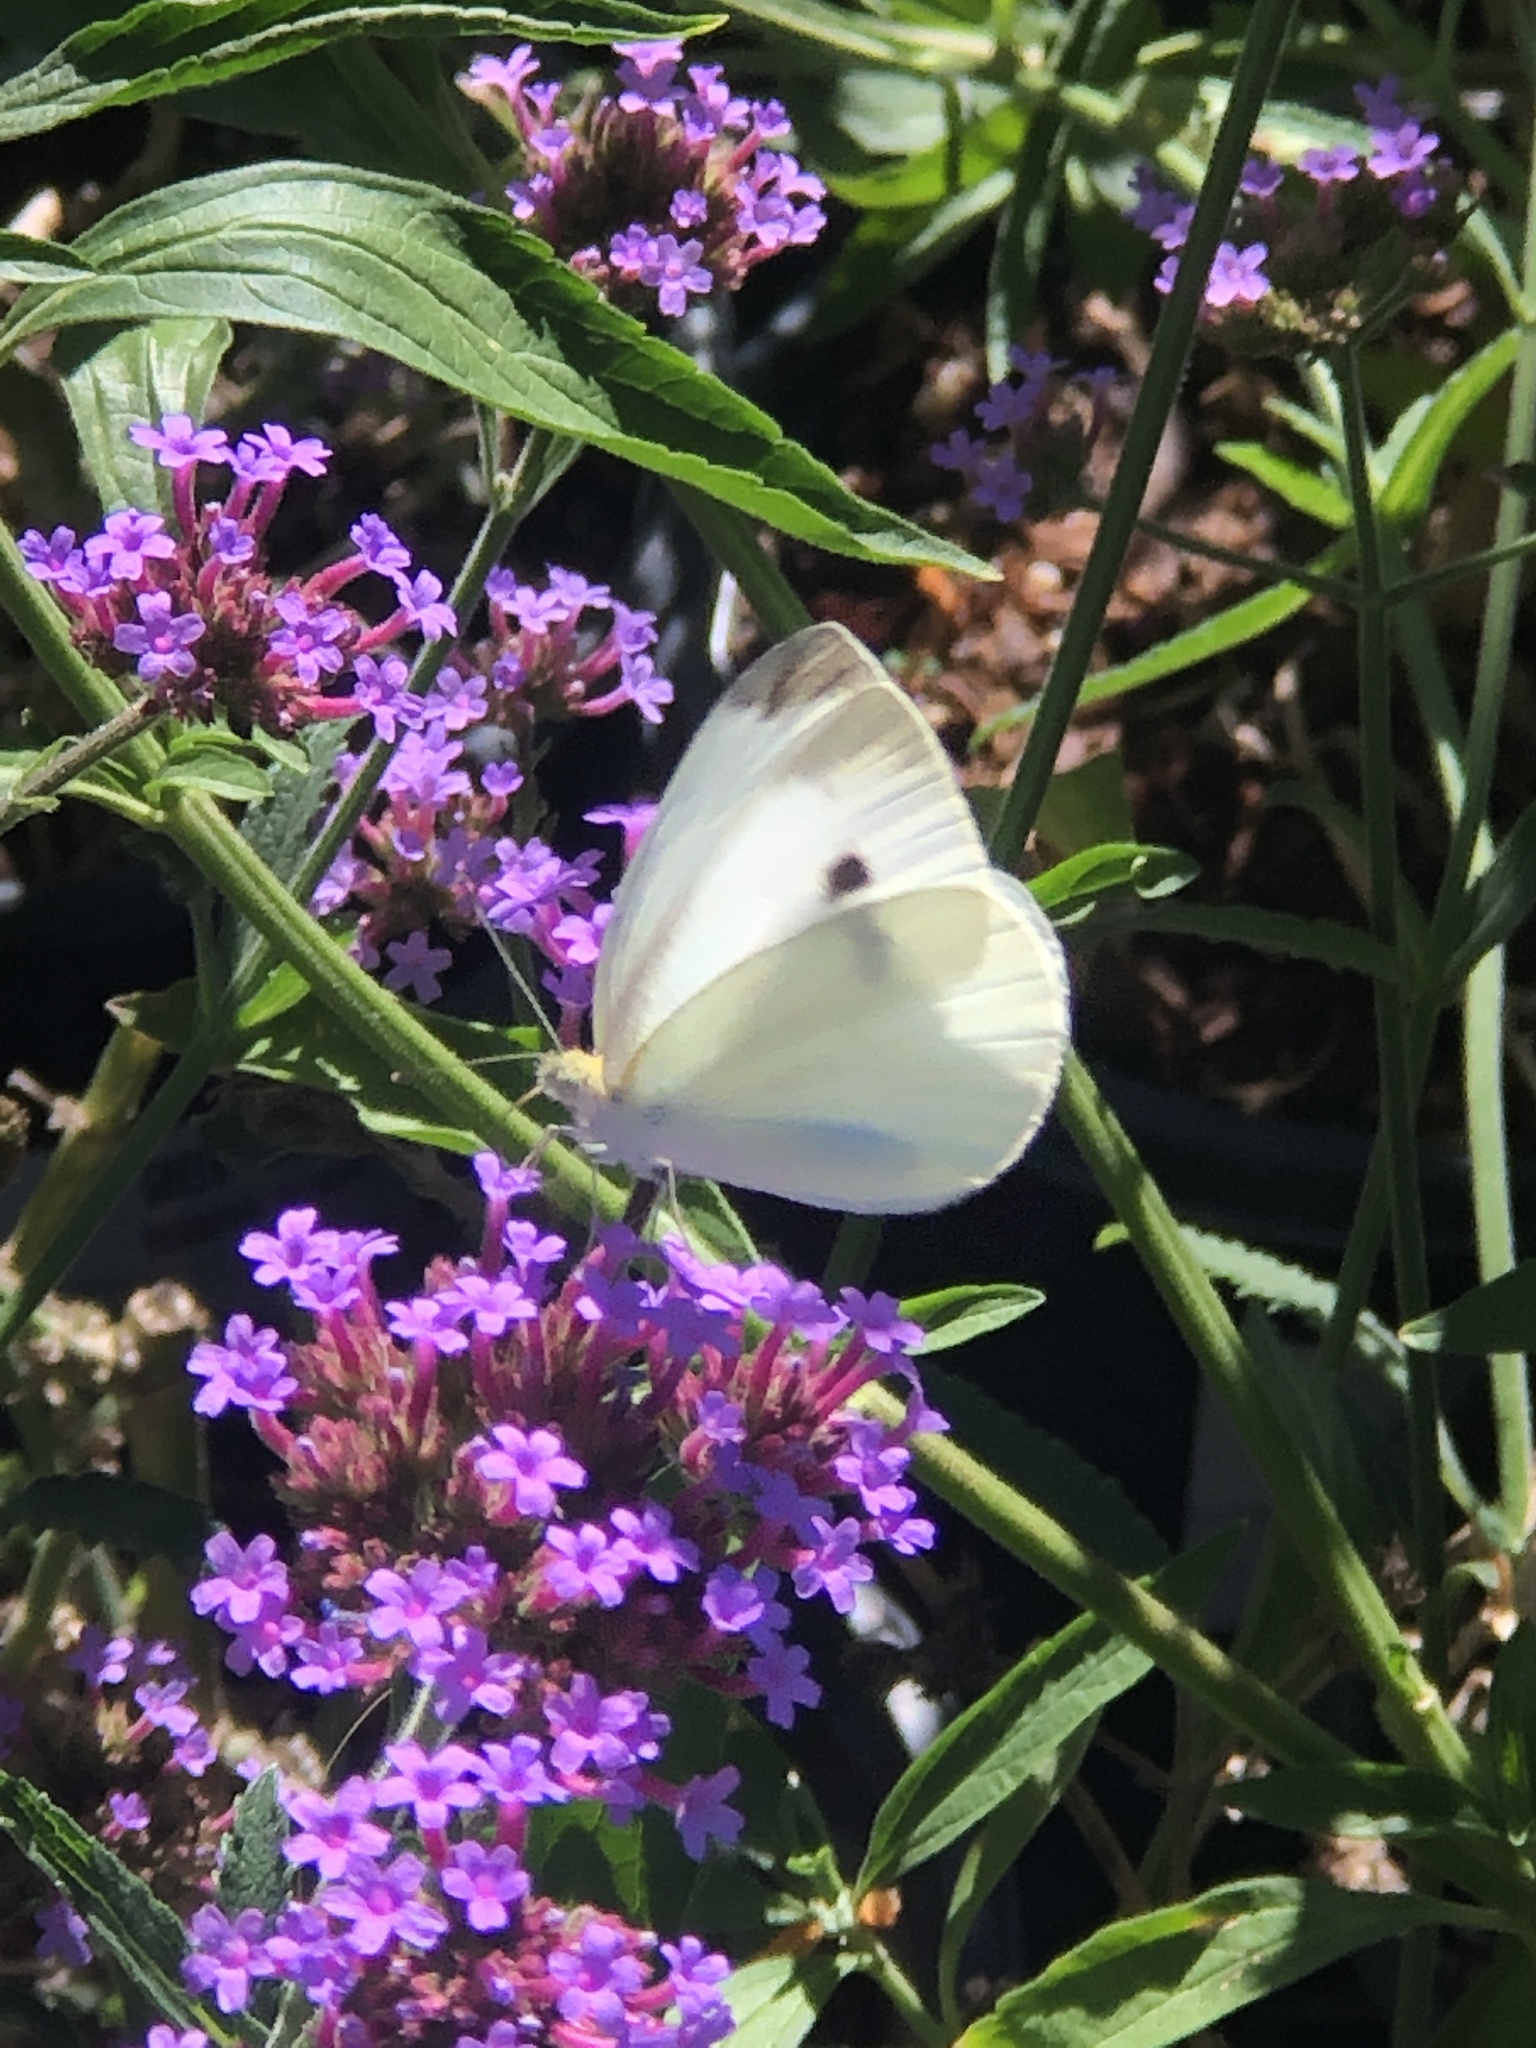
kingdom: Animalia
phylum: Arthropoda
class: Insecta
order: Lepidoptera
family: Pieridae
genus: Pieris
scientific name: Pieris rapae
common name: Small white
